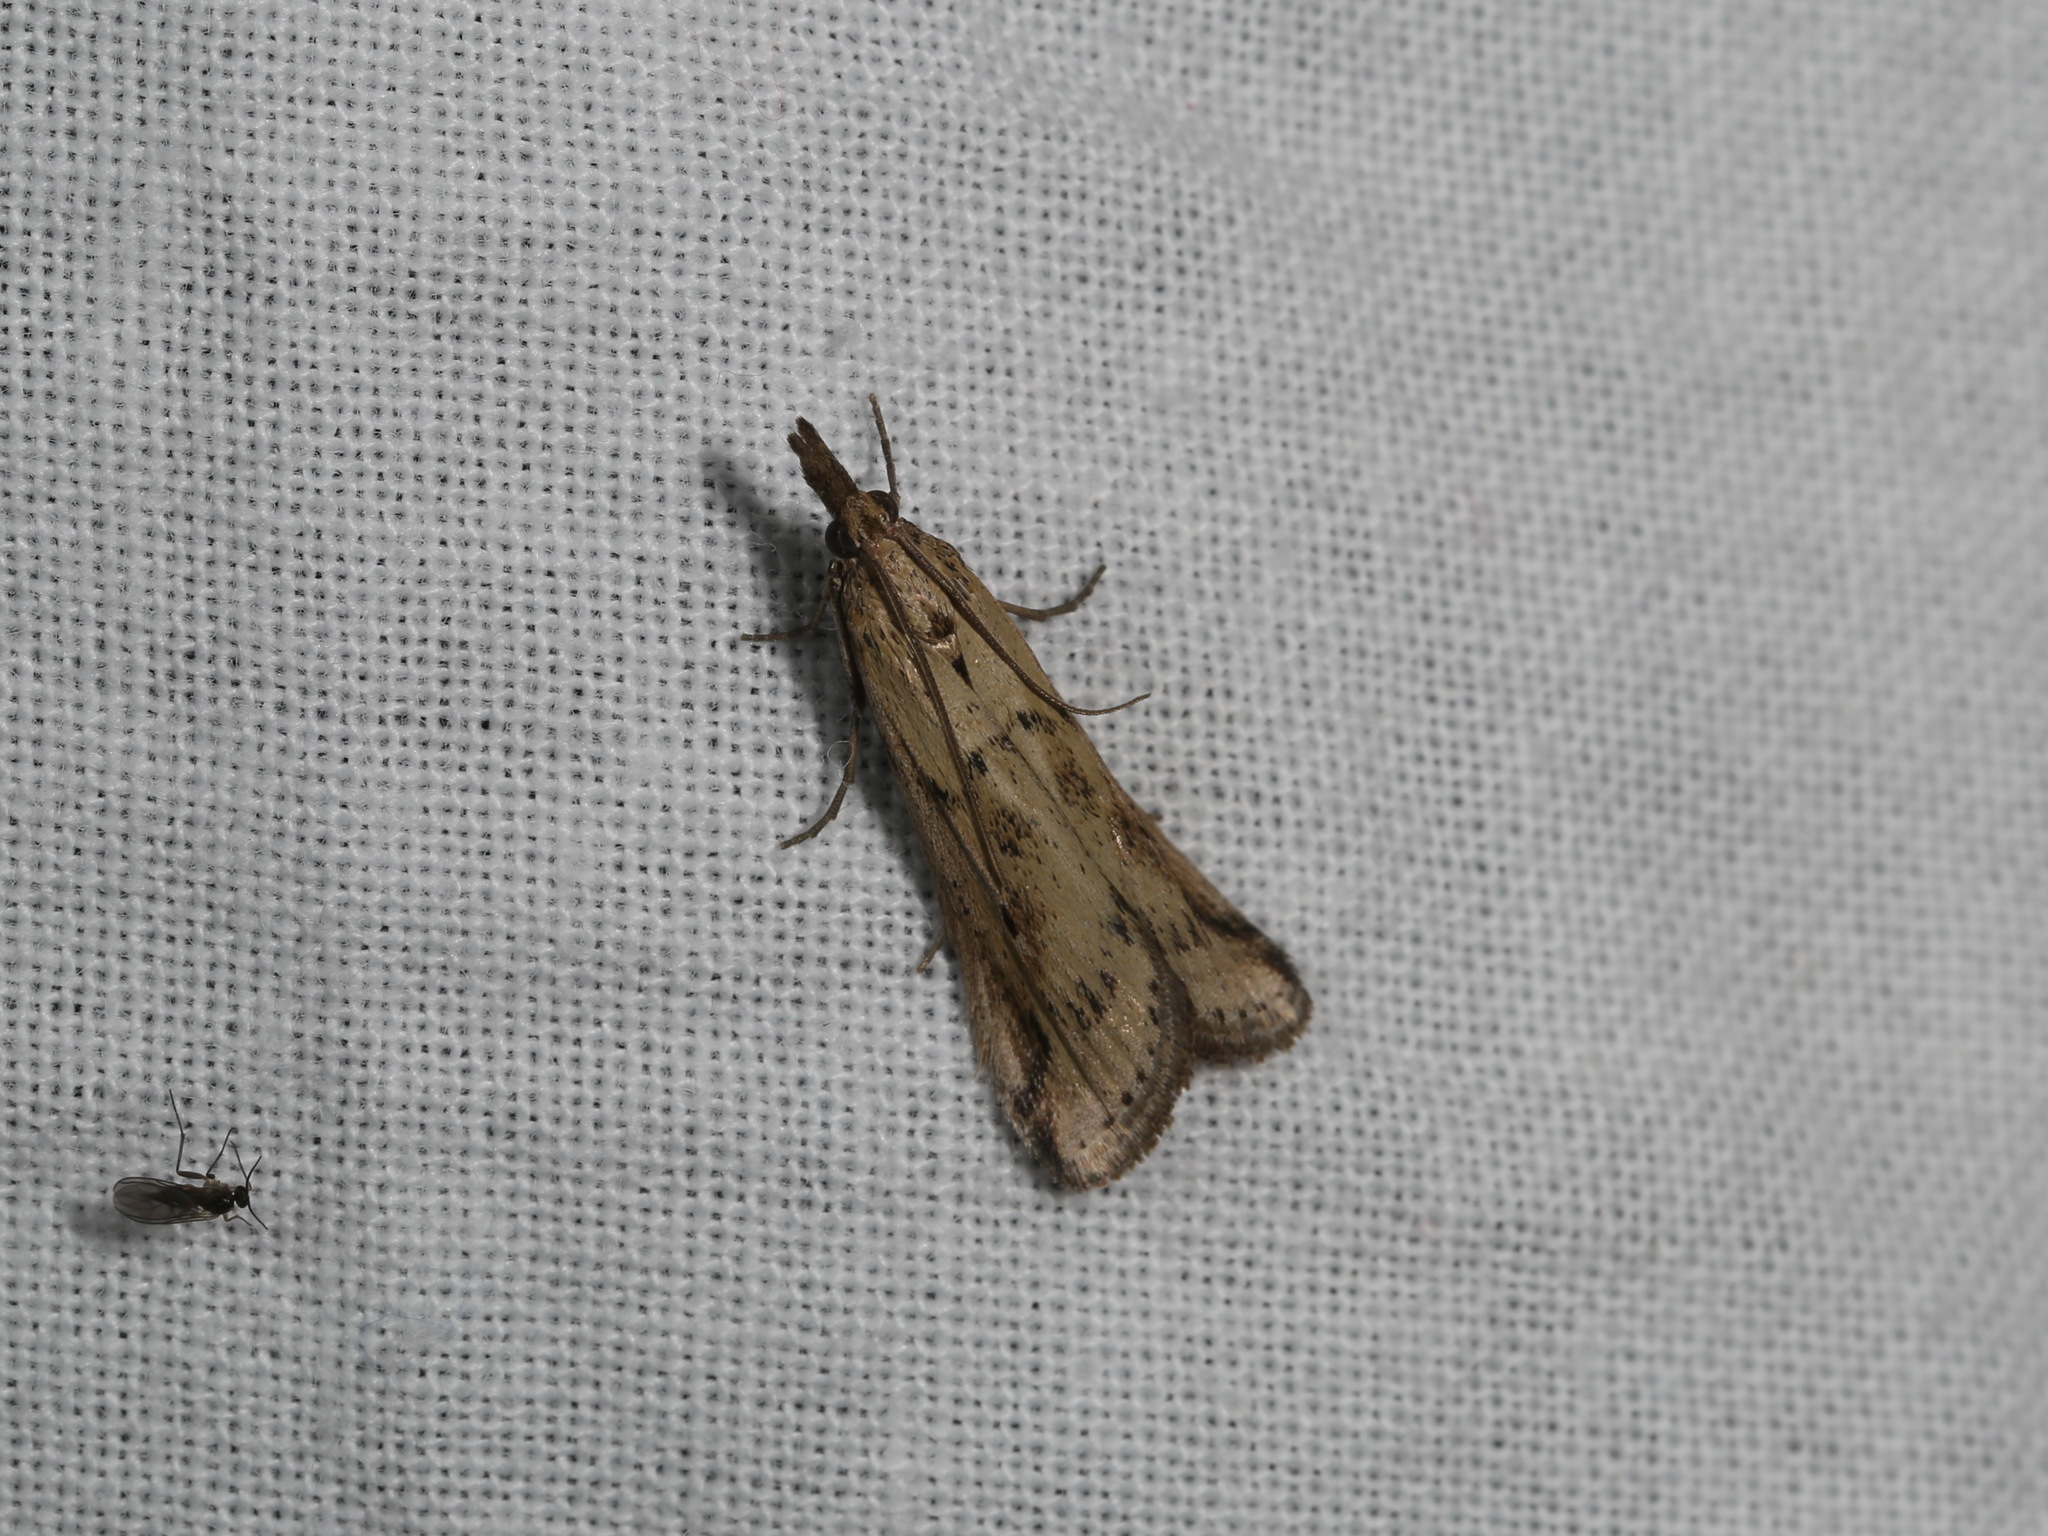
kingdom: Animalia
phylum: Arthropoda
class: Insecta
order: Lepidoptera
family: Pyralidae
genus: Faveria
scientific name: Faveria tritalis
